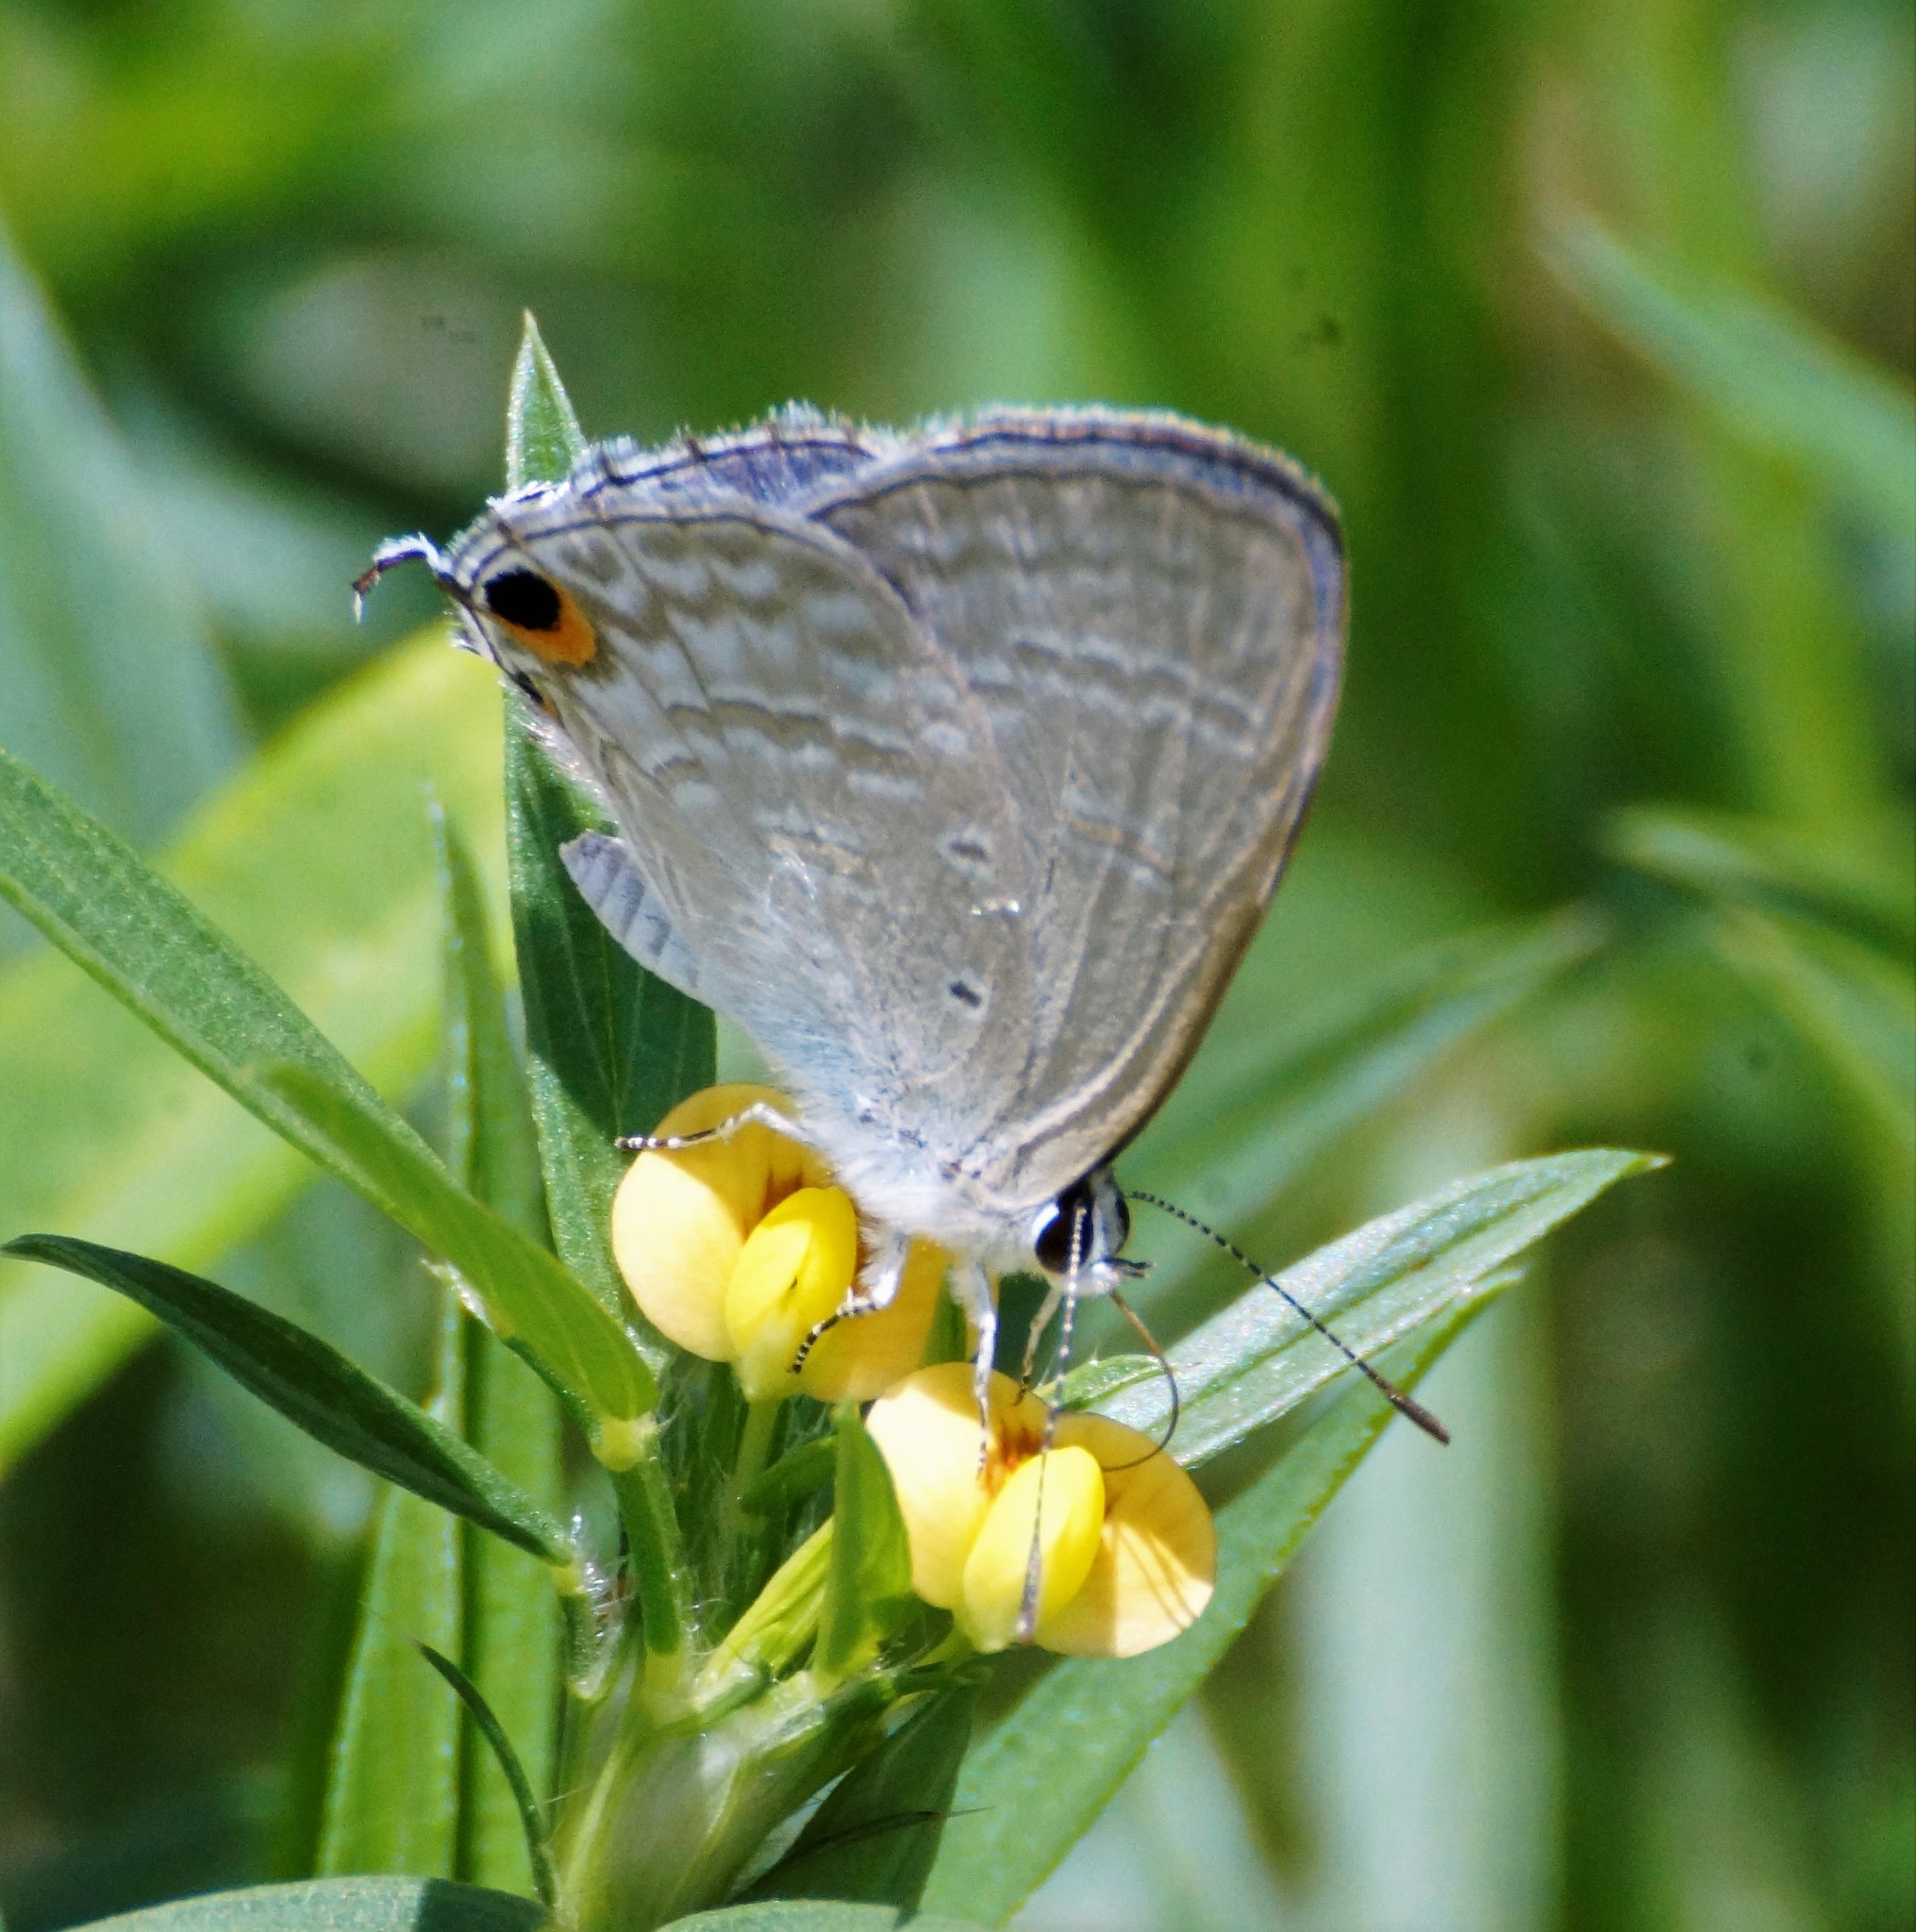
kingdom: Animalia
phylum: Arthropoda
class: Insecta
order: Lepidoptera
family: Lycaenidae
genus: Catochrysops
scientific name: Catochrysops panormus
